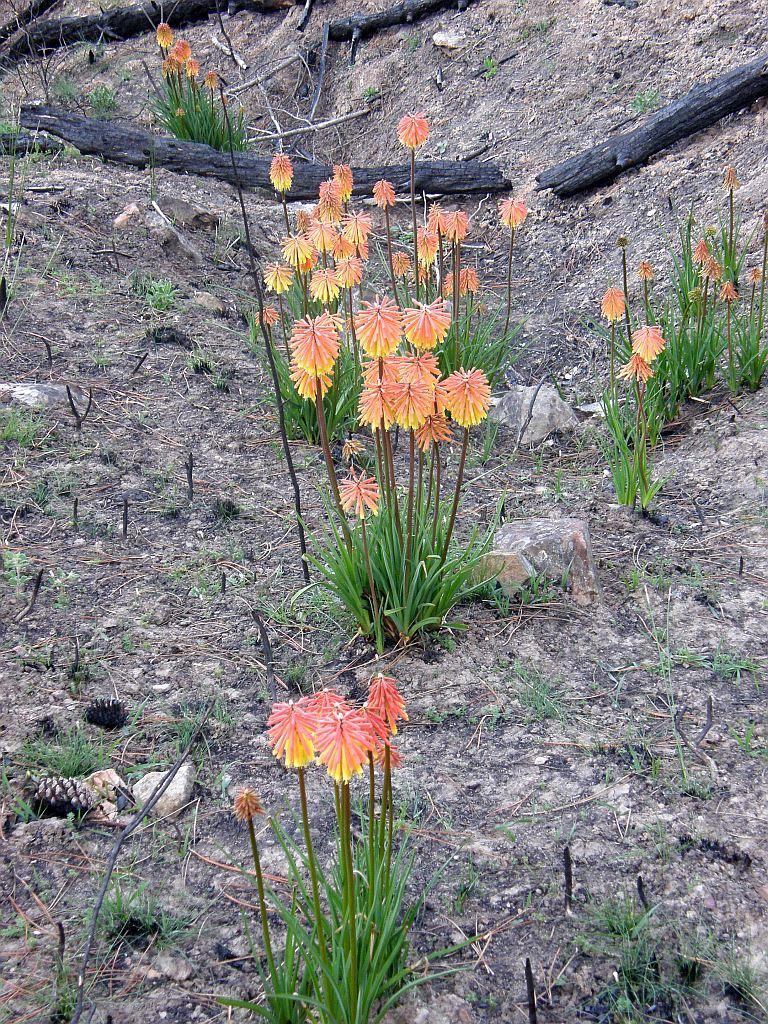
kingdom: Plantae
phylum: Tracheophyta
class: Liliopsida
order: Asparagales
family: Asphodelaceae
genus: Kniphofia
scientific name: Kniphofia uvaria
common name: Red-hot-poker
